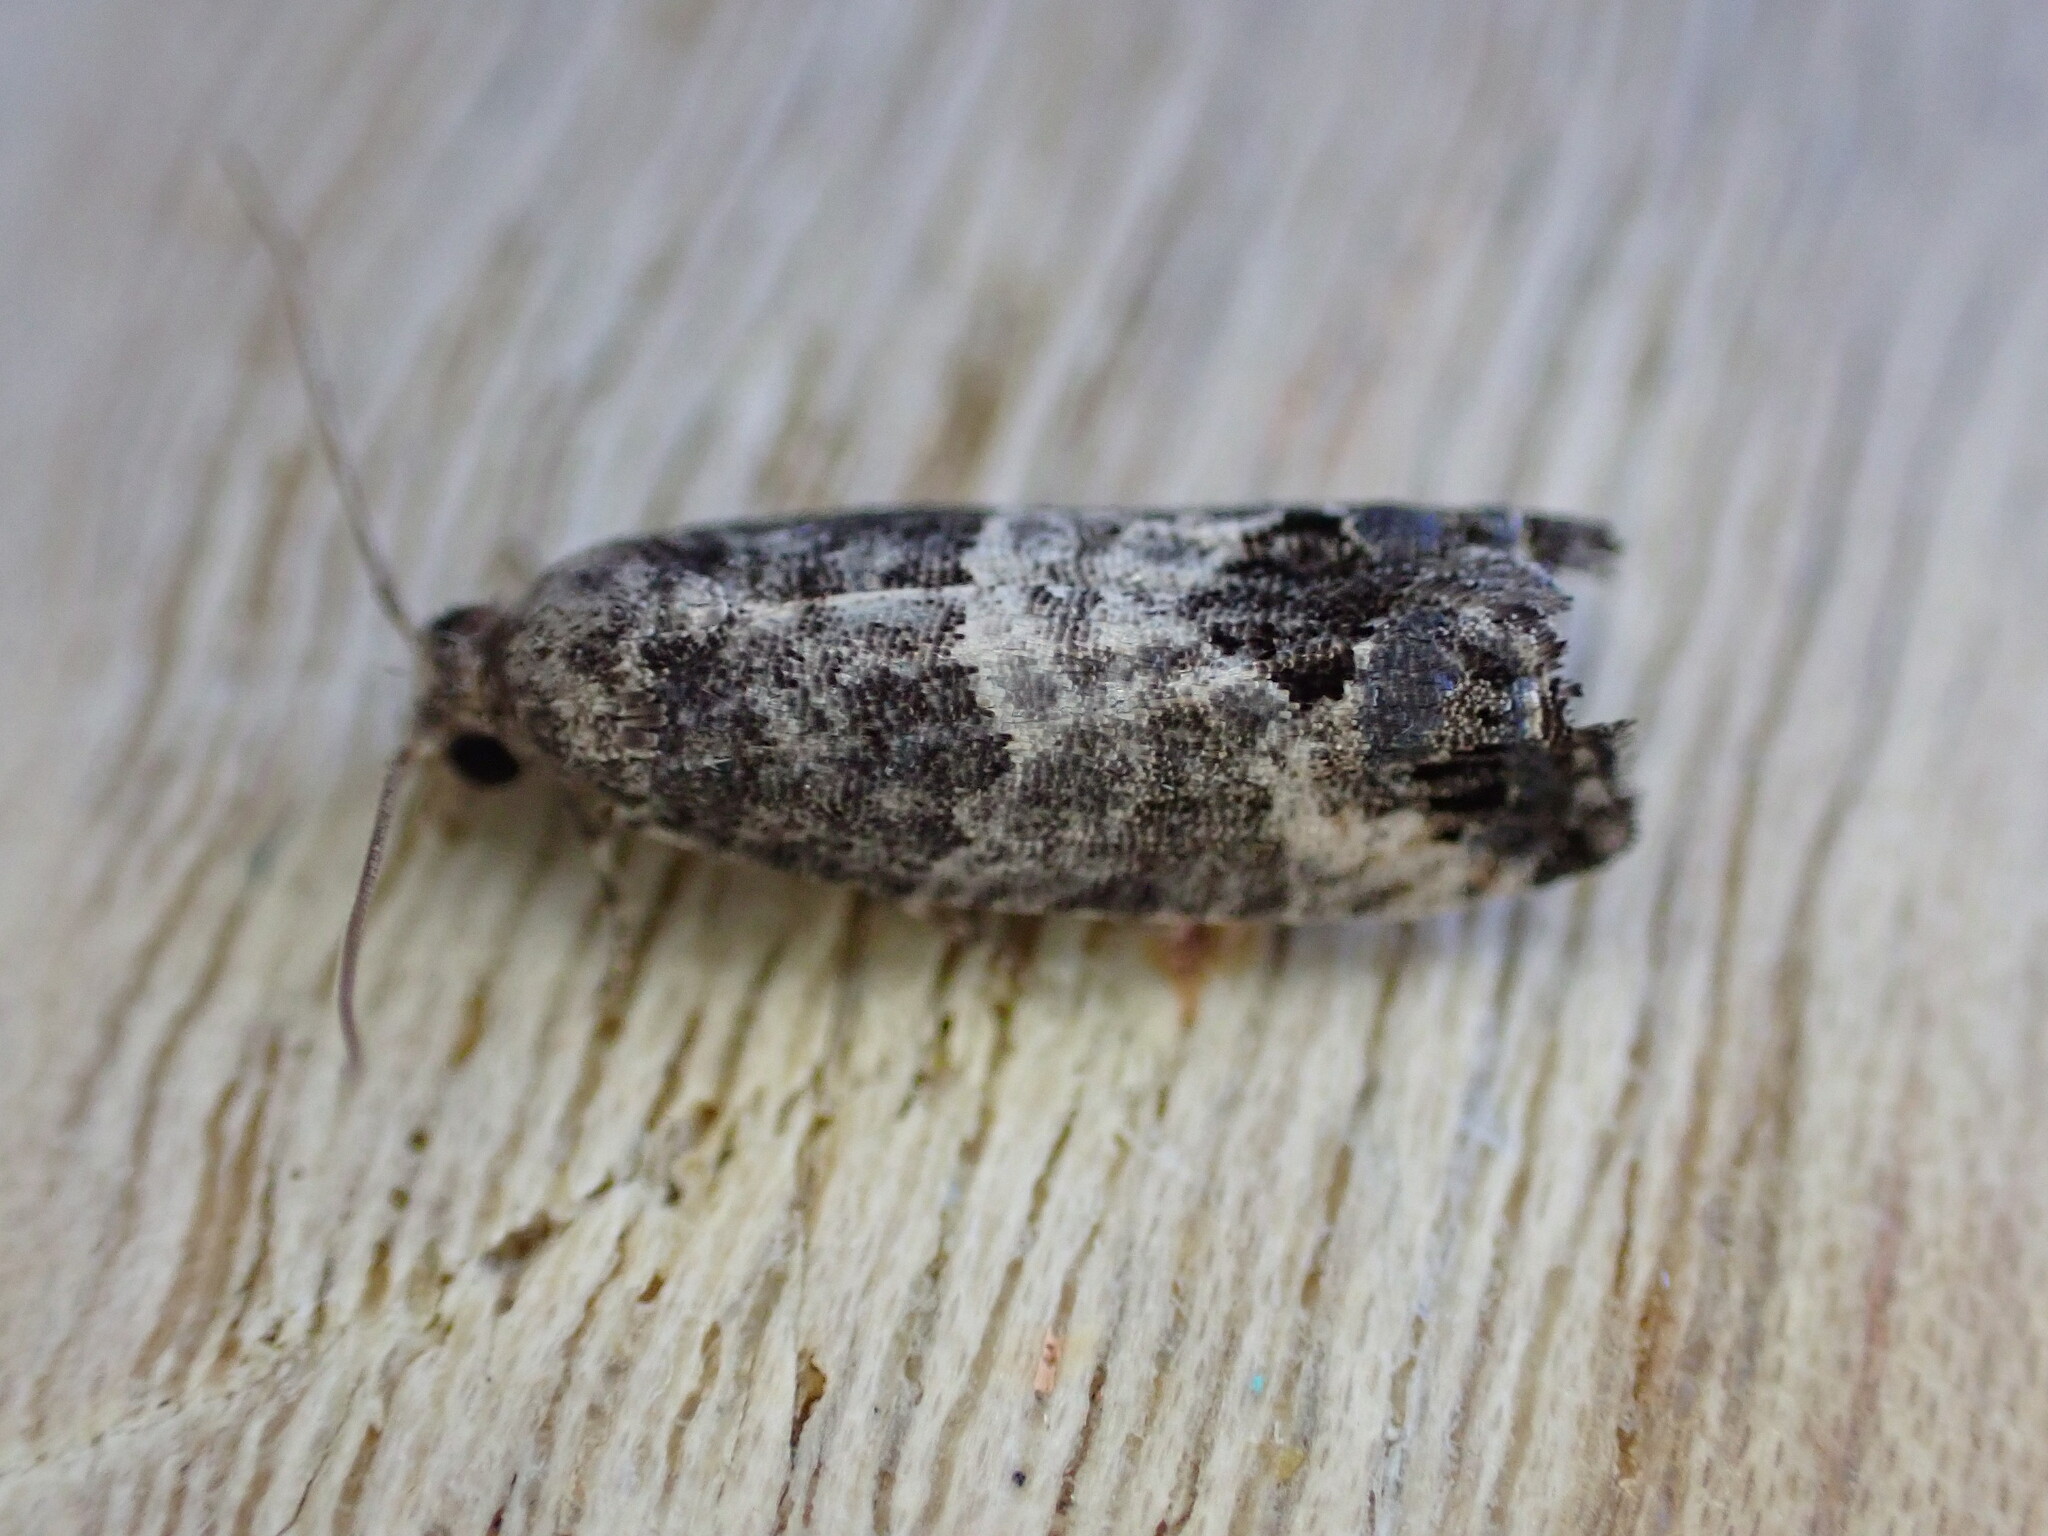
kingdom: Animalia
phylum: Arthropoda
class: Insecta
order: Lepidoptera
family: Tortricidae
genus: Spilonota
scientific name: Spilonota laricana
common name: Larch shoot tortricid moth
